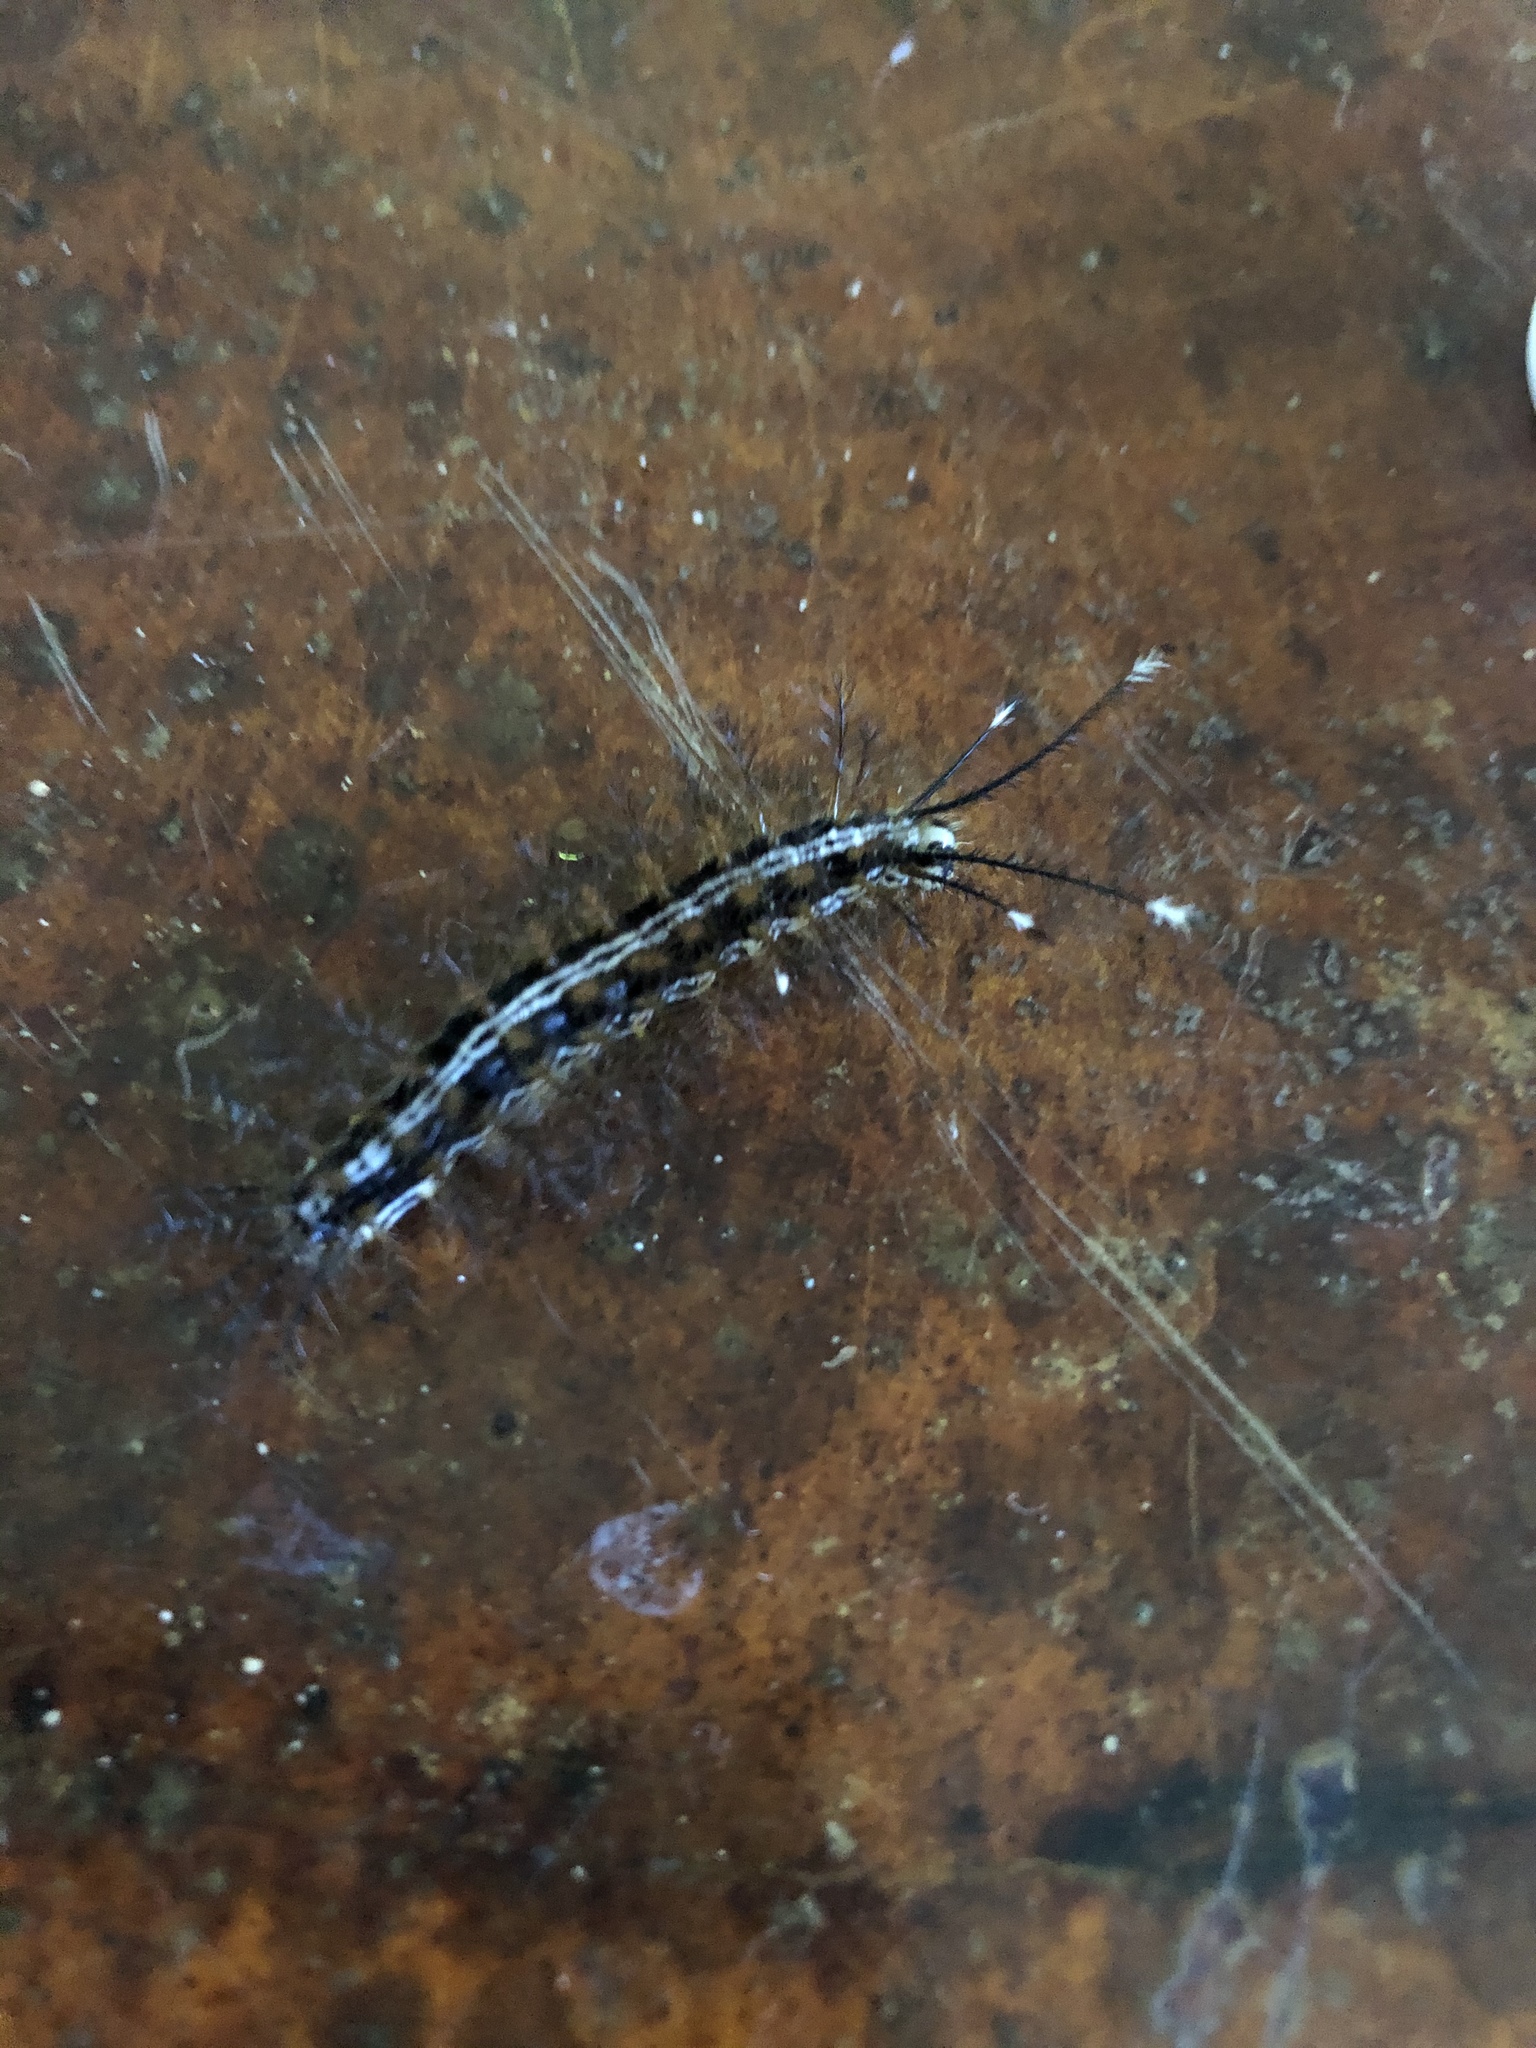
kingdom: Animalia
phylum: Arthropoda
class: Insecta
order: Lepidoptera
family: Saturniidae
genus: Hylesia
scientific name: Hylesia continua
